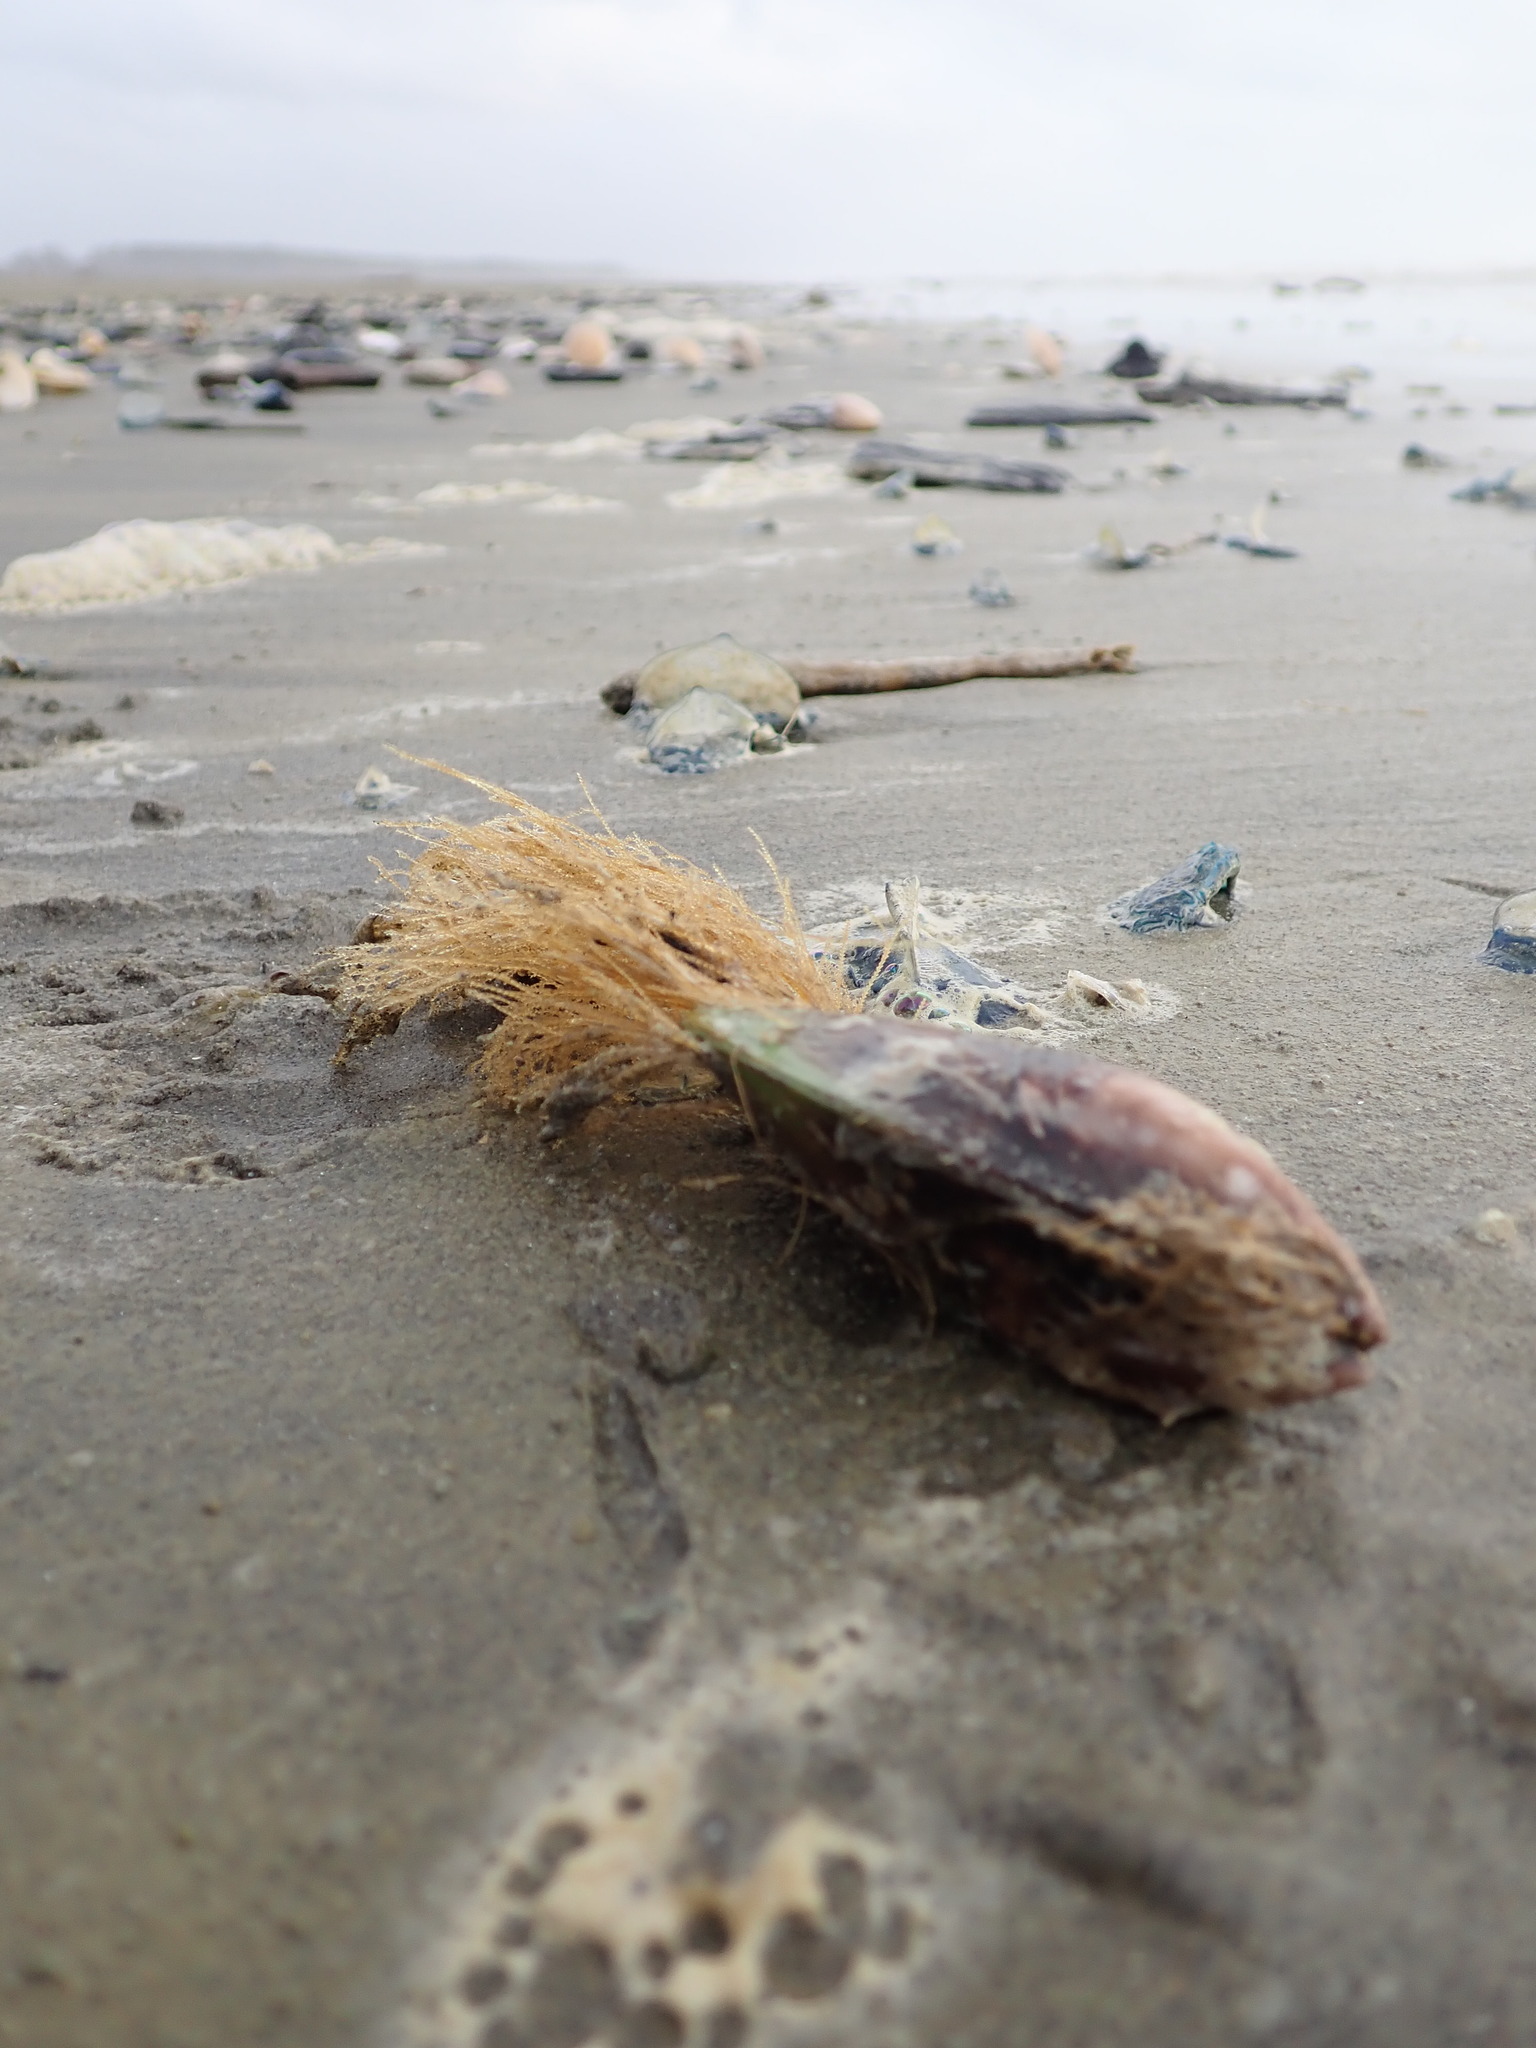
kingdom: Animalia
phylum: Mollusca
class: Bivalvia
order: Mytilida
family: Mytilidae
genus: Perna
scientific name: Perna canaliculus
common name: New zealand greenshelltm
